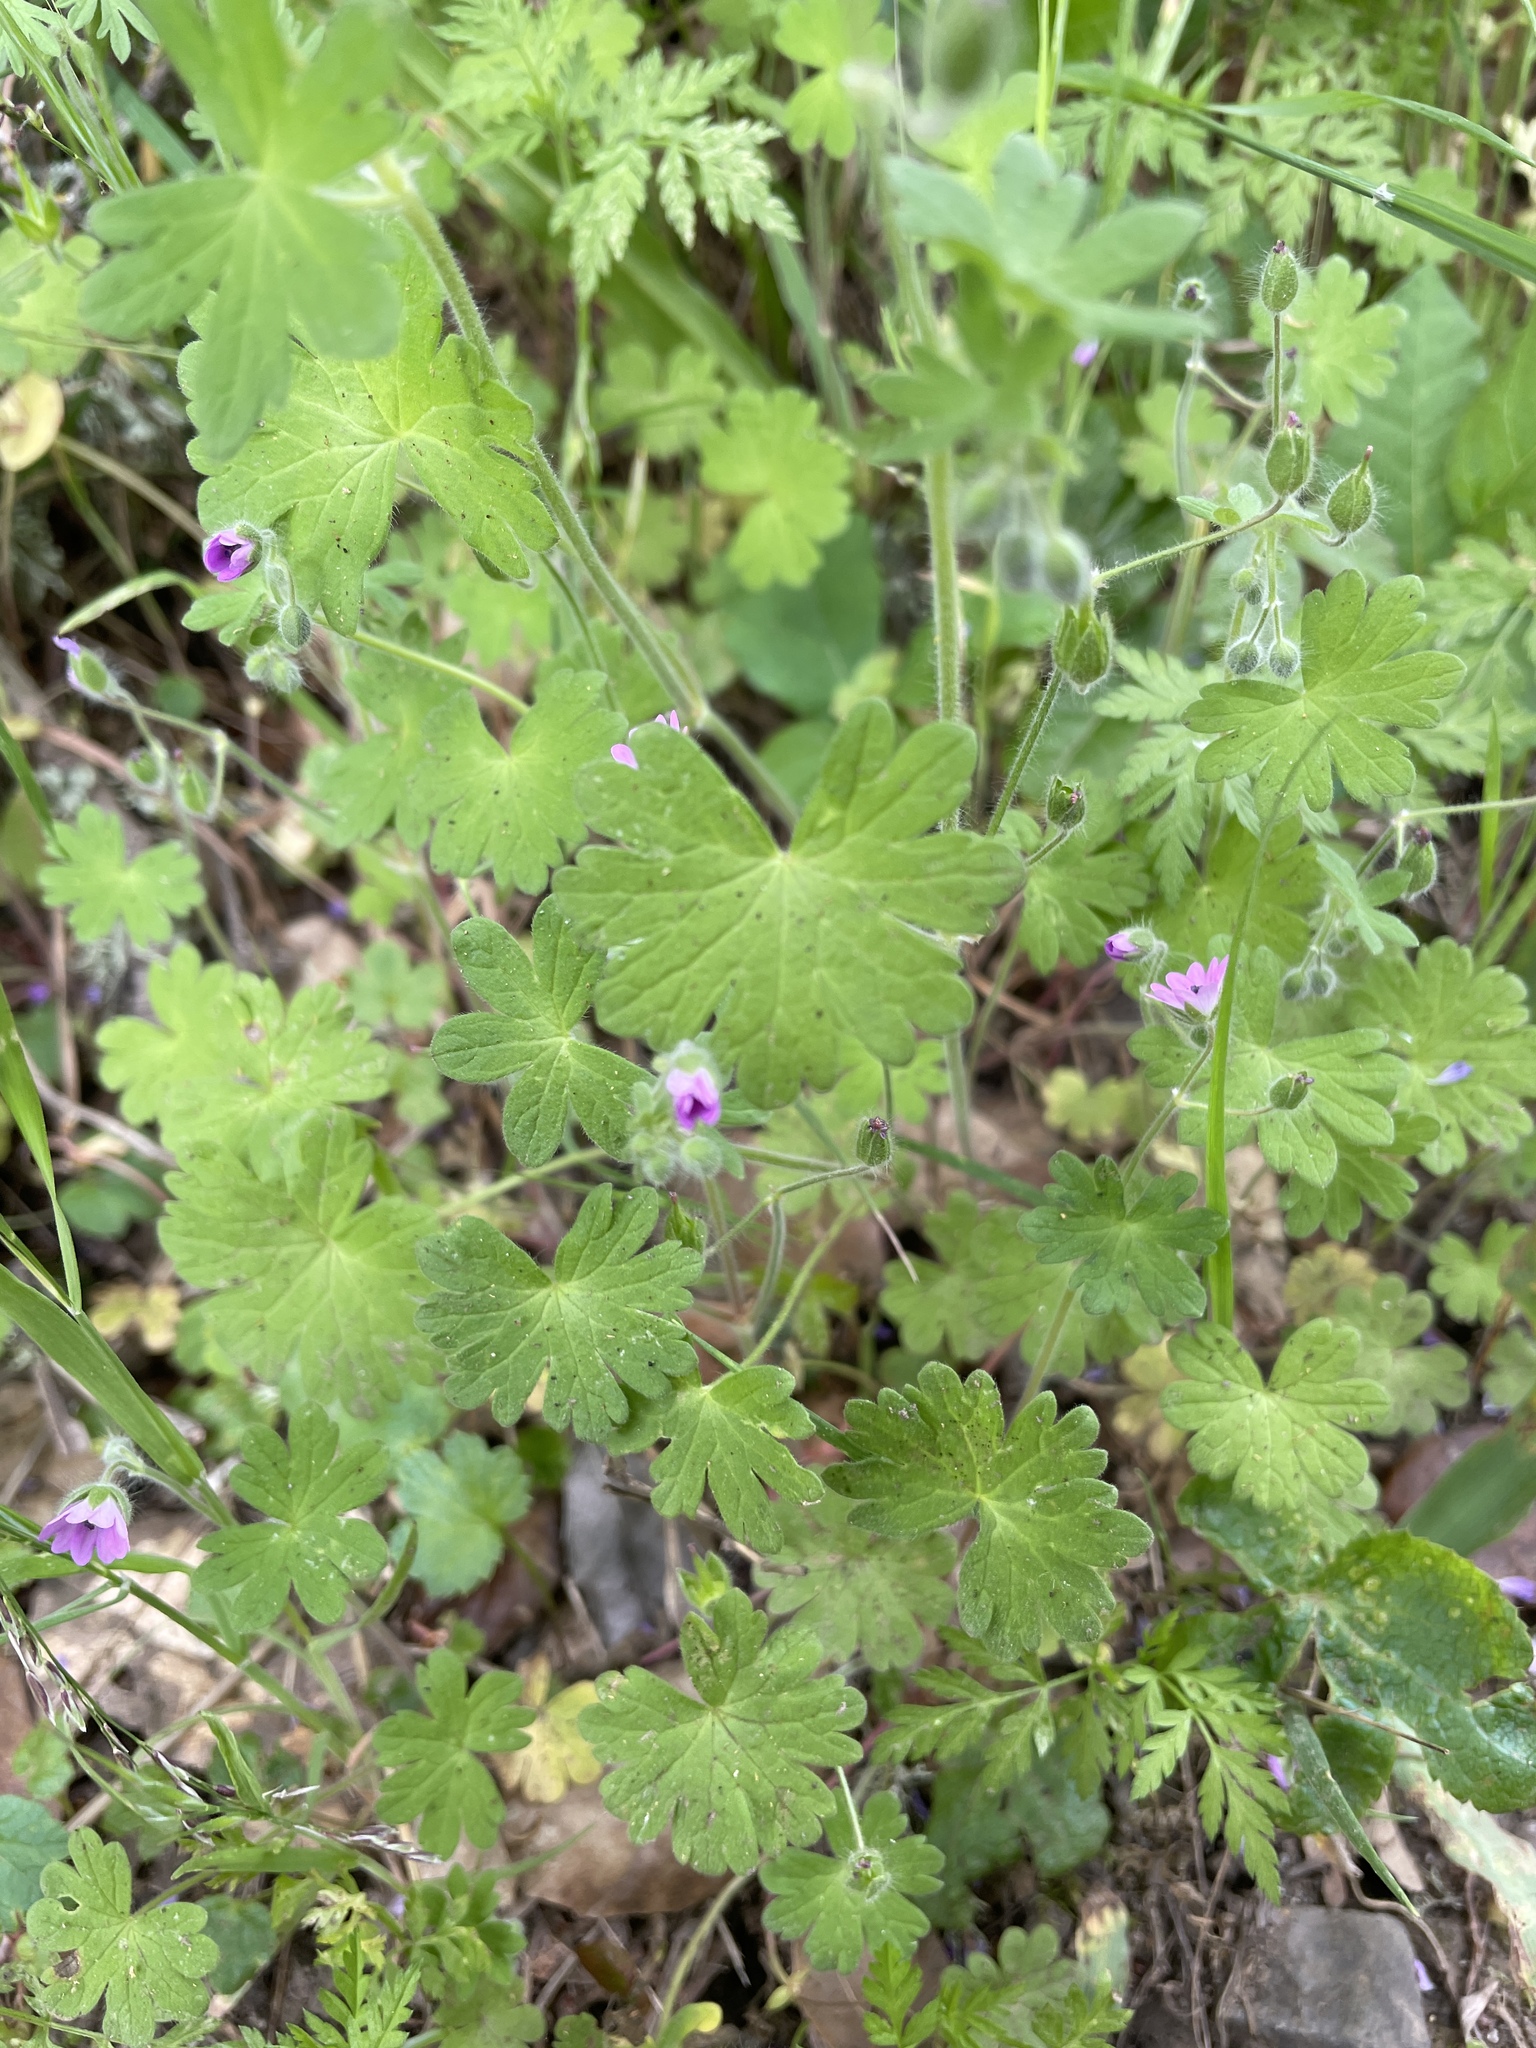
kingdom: Plantae
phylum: Tracheophyta
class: Magnoliopsida
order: Geraniales
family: Geraniaceae
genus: Geranium
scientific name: Geranium molle
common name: Dove's-foot crane's-bill
